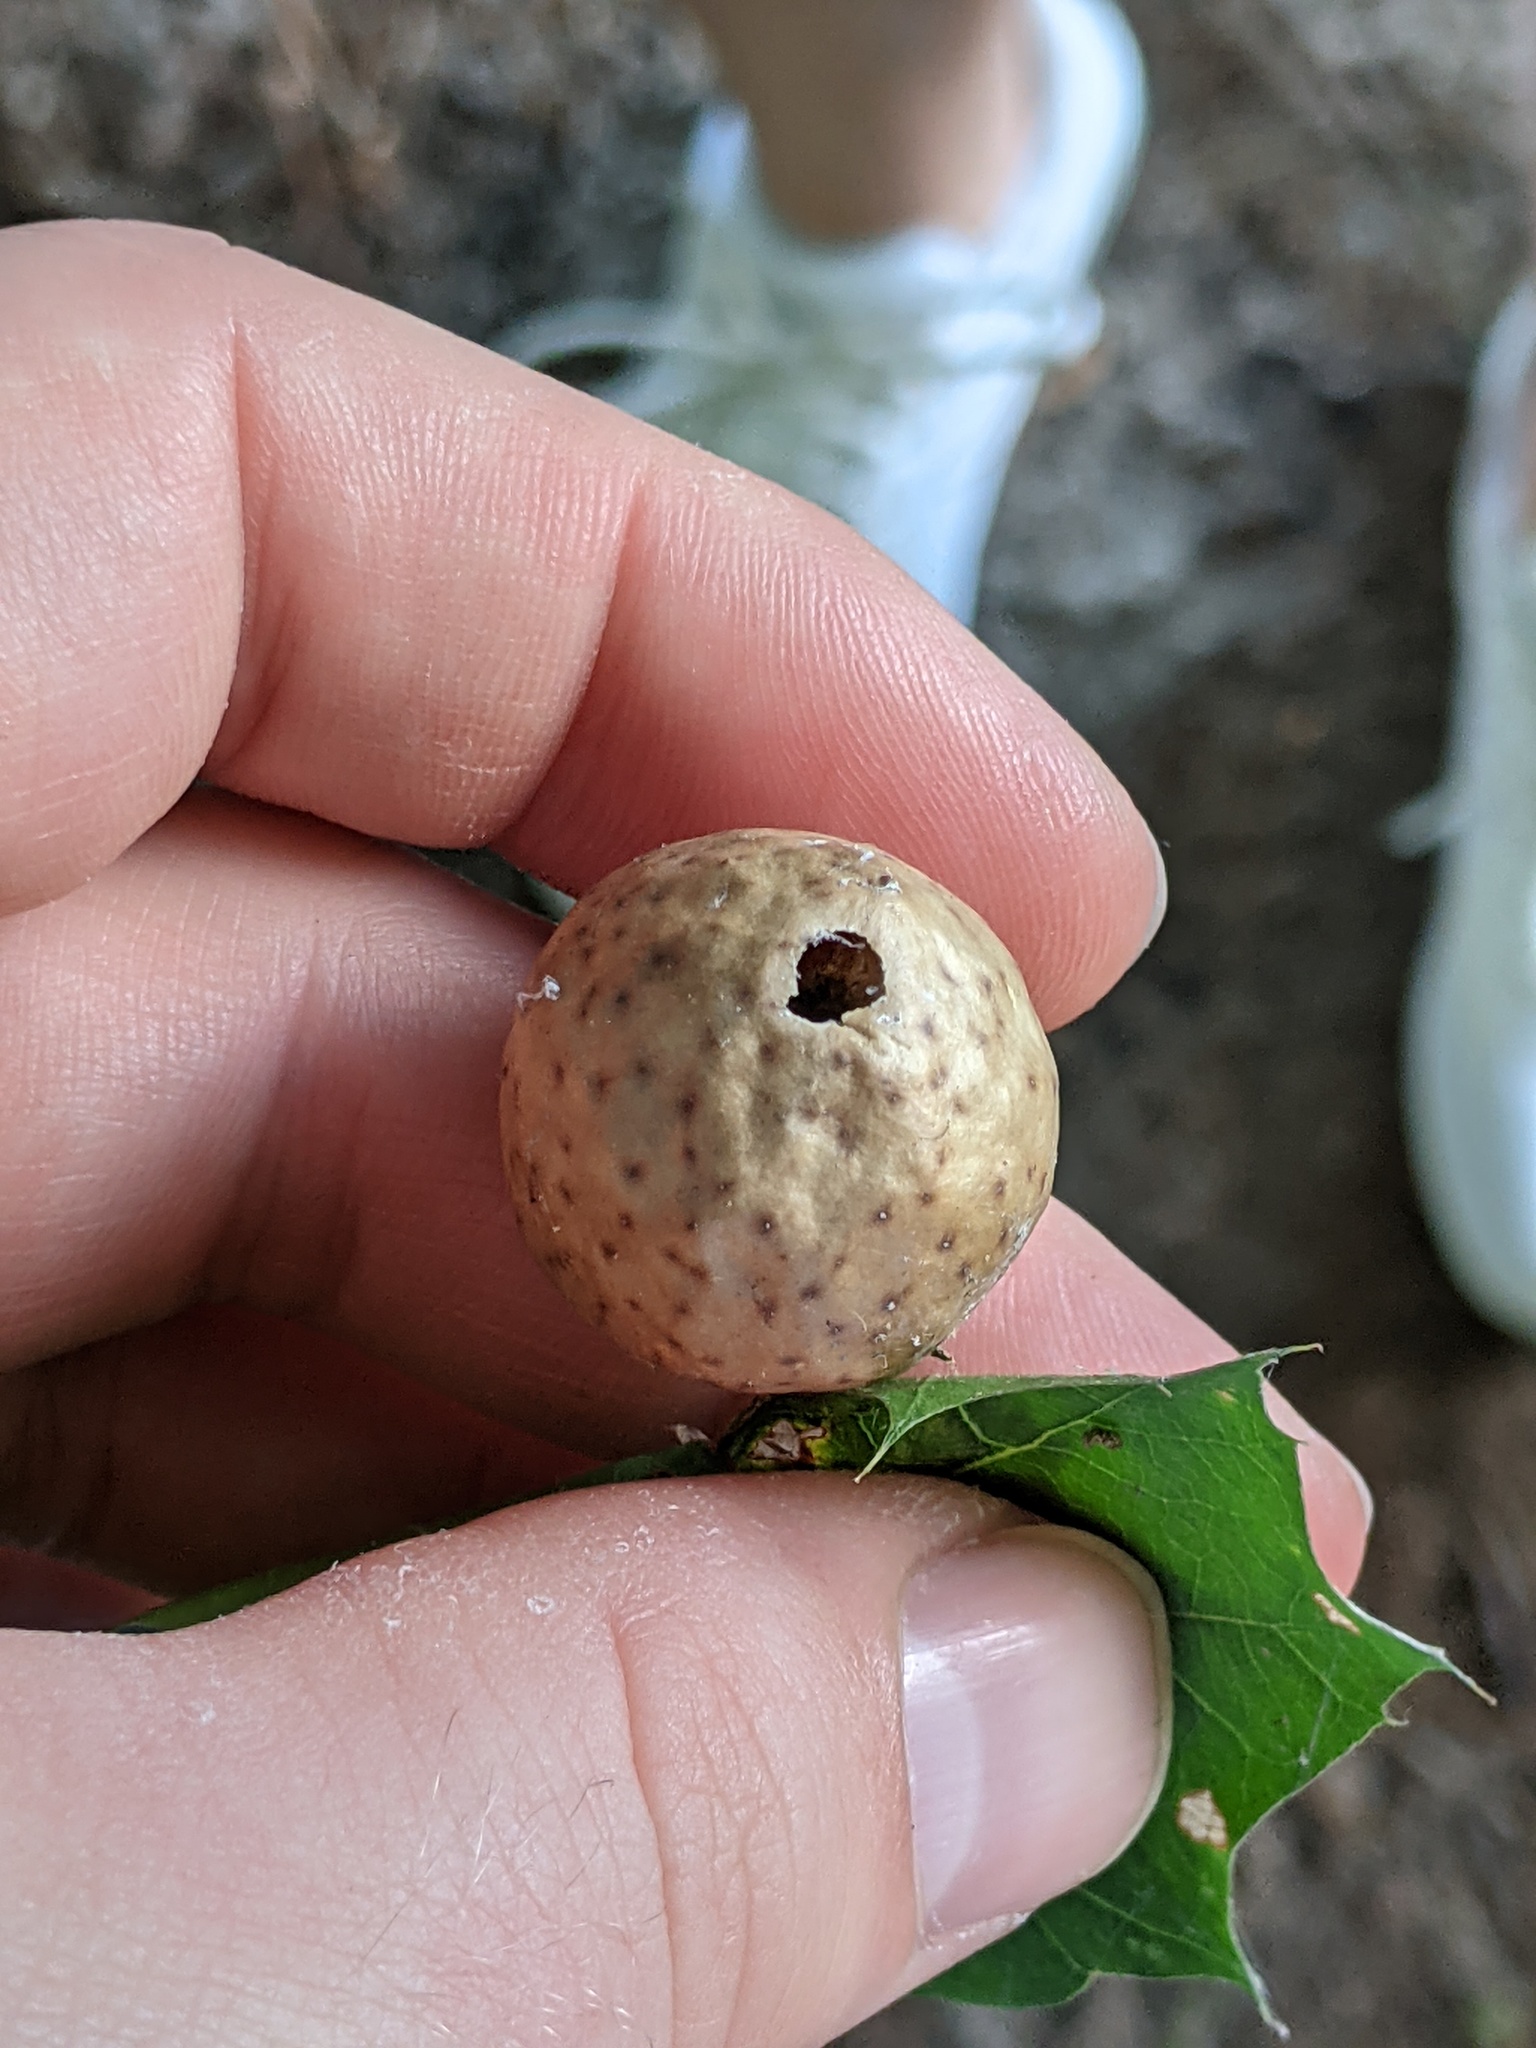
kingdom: Animalia
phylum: Arthropoda
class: Insecta
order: Hymenoptera
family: Cynipidae
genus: Amphibolips
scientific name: Amphibolips
